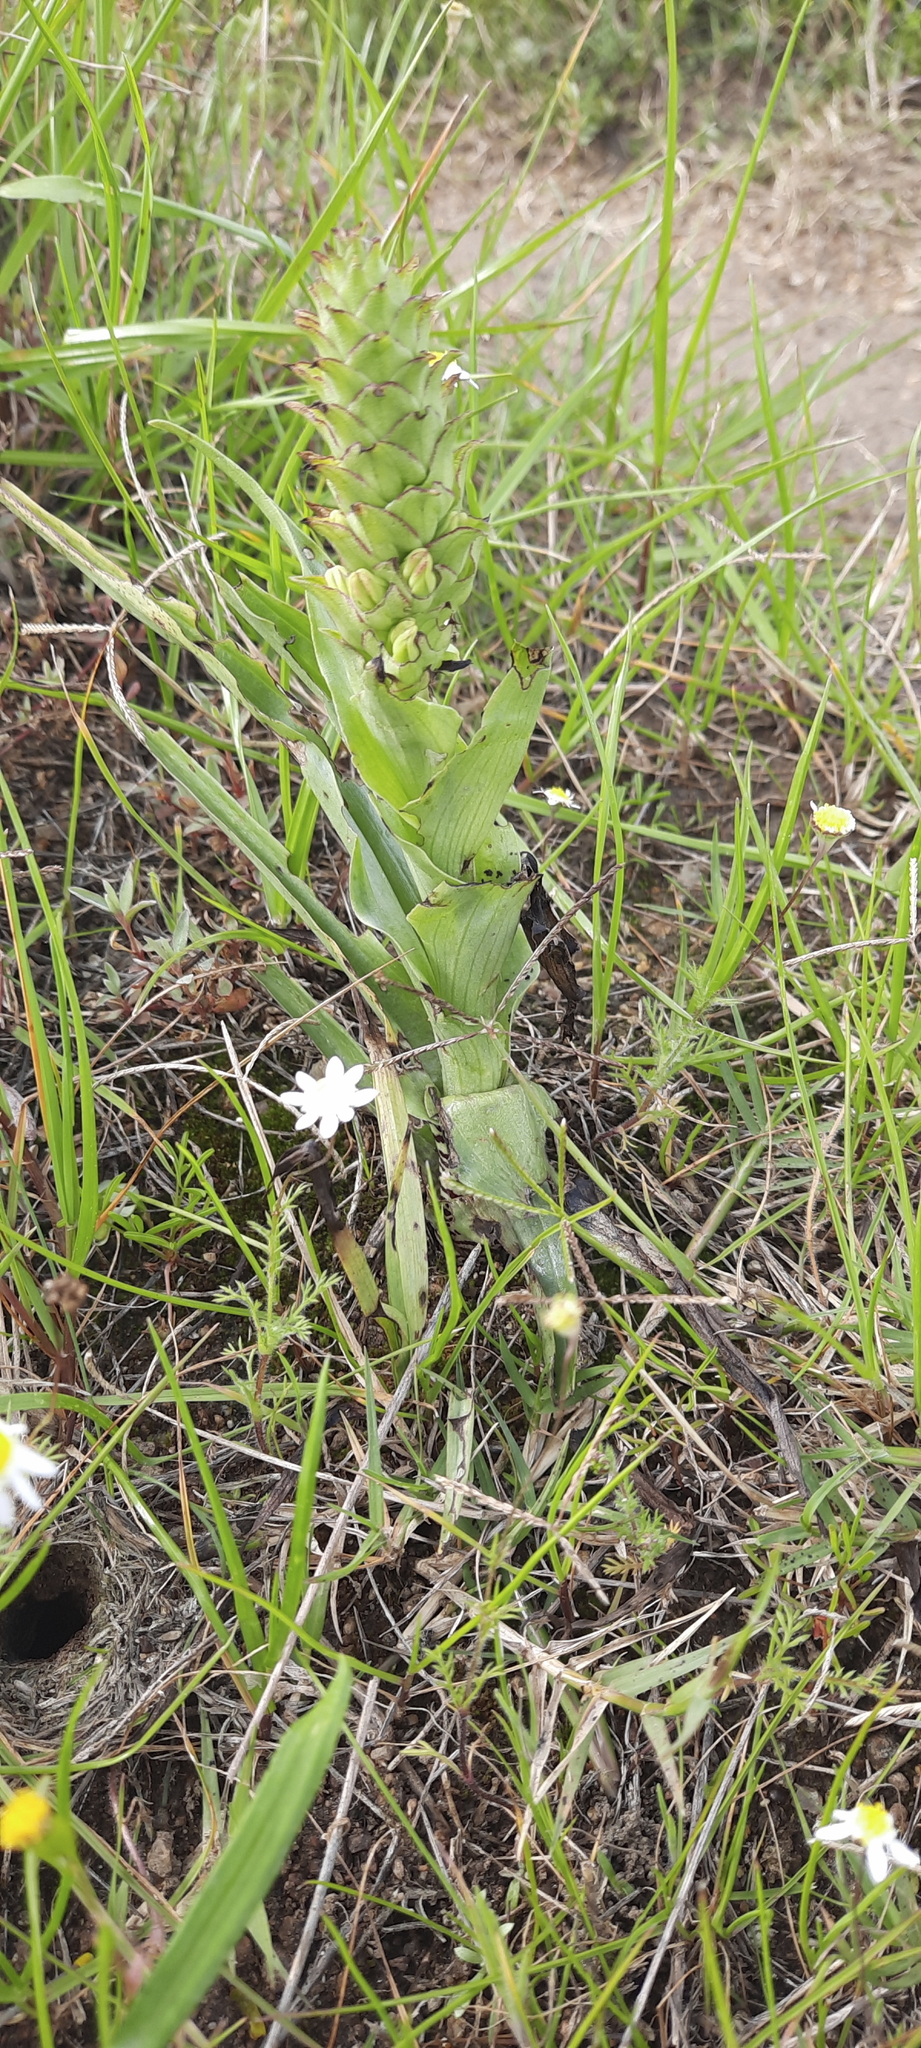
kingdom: Plantae
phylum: Tracheophyta
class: Liliopsida
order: Asparagales
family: Orchidaceae
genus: Corycium
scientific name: Corycium orobanchoides
